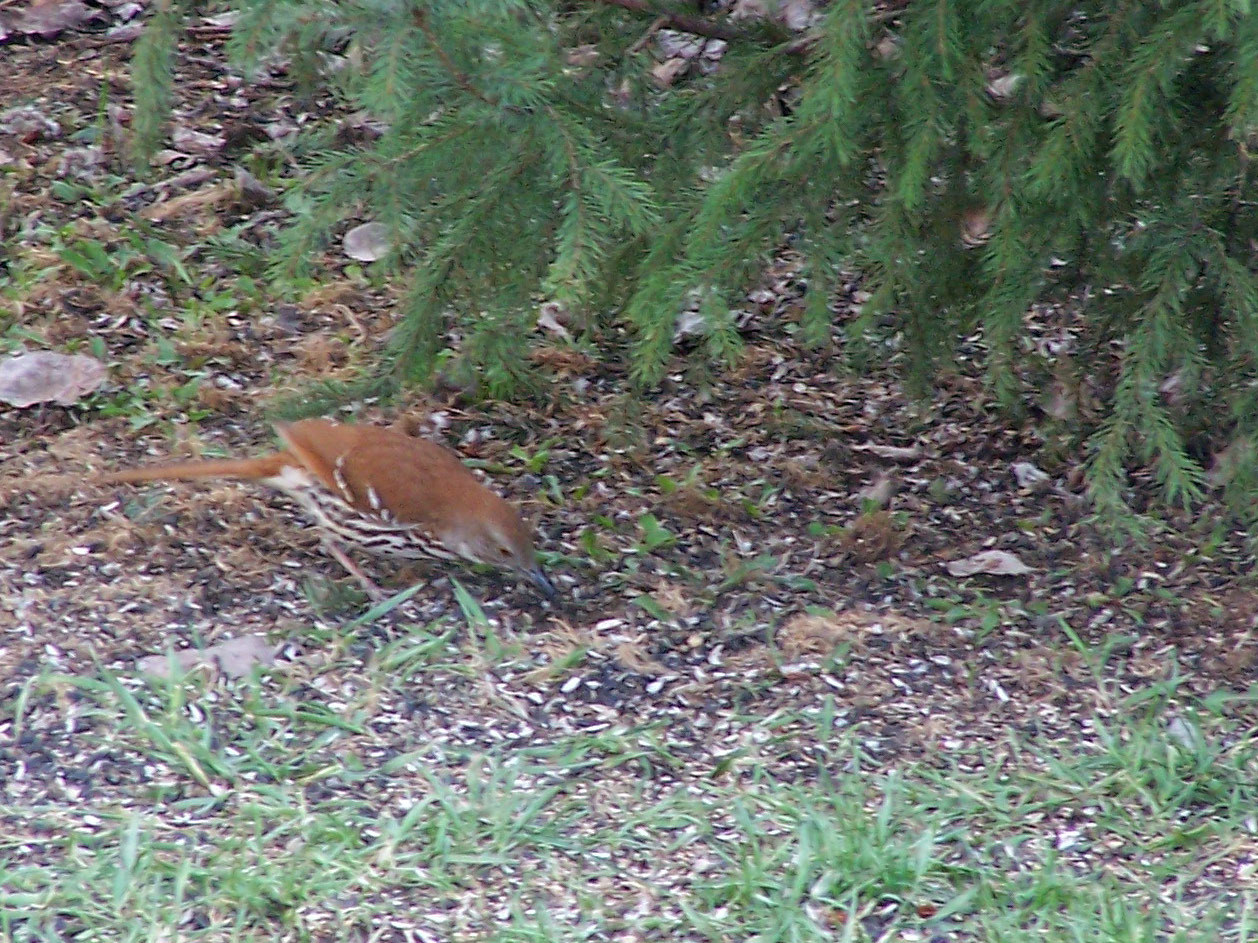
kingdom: Animalia
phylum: Chordata
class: Aves
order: Passeriformes
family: Mimidae
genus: Toxostoma
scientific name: Toxostoma rufum
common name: Brown thrasher
